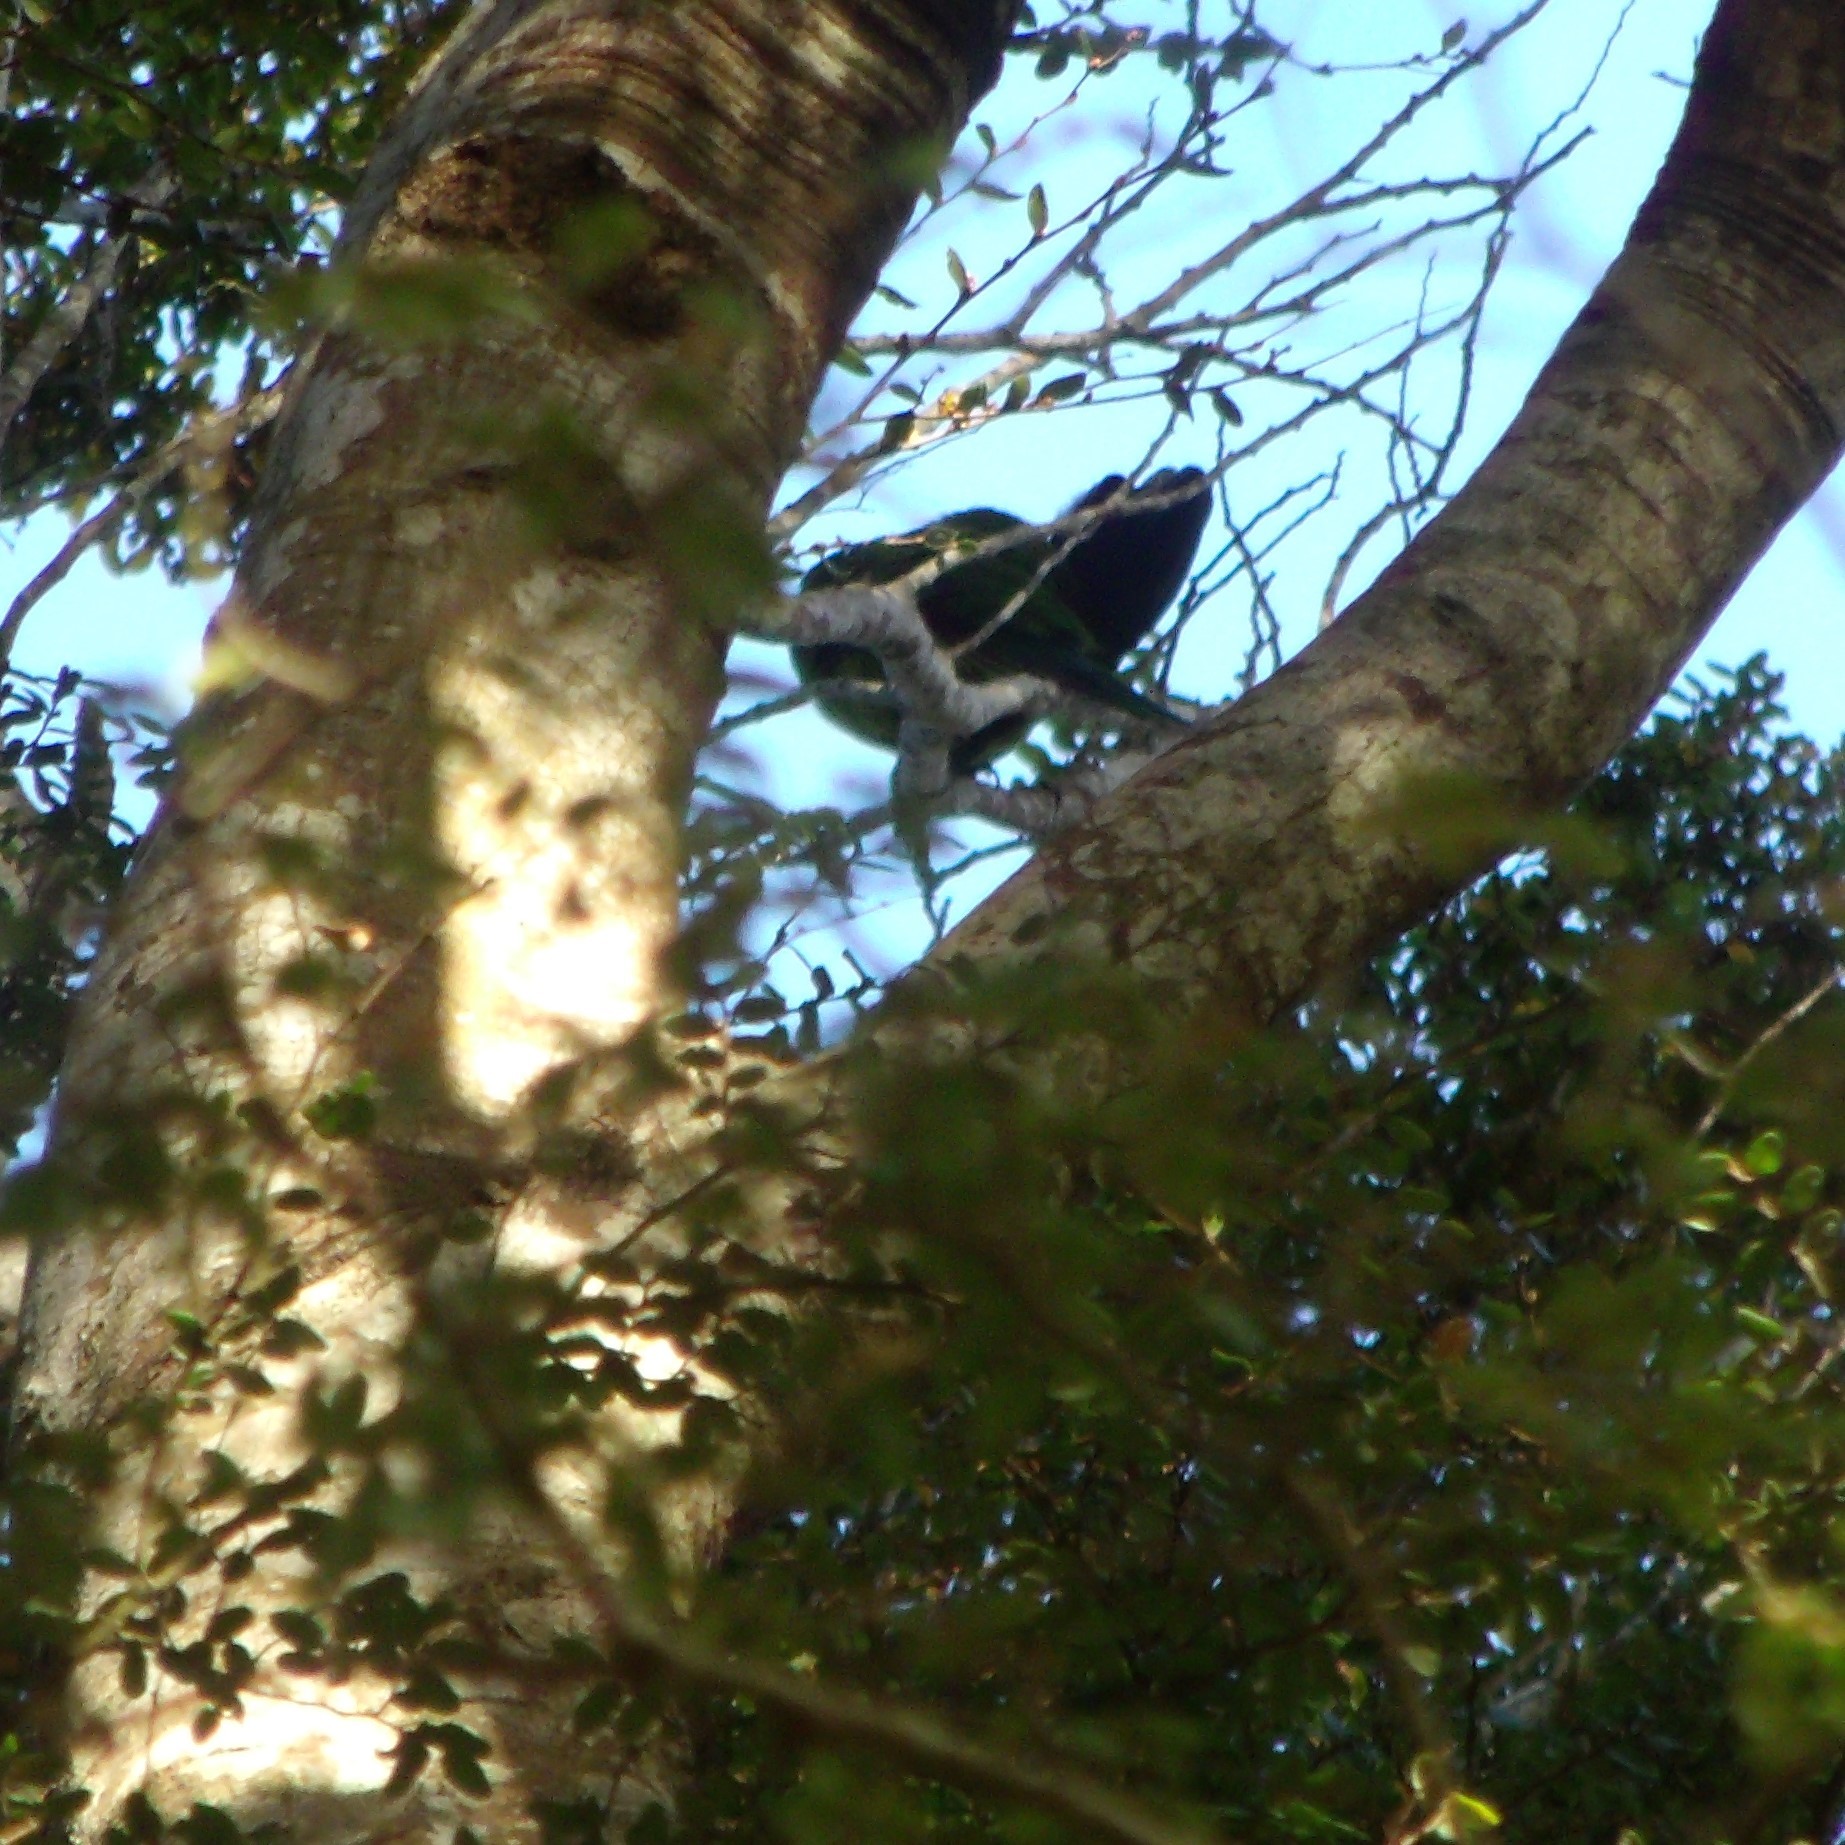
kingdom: Animalia
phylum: Chordata
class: Aves
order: Psittaciformes
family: Psittacidae
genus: Cyanoramphus
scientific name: Cyanoramphus novaezelandiae
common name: Red-fronted parakeet
